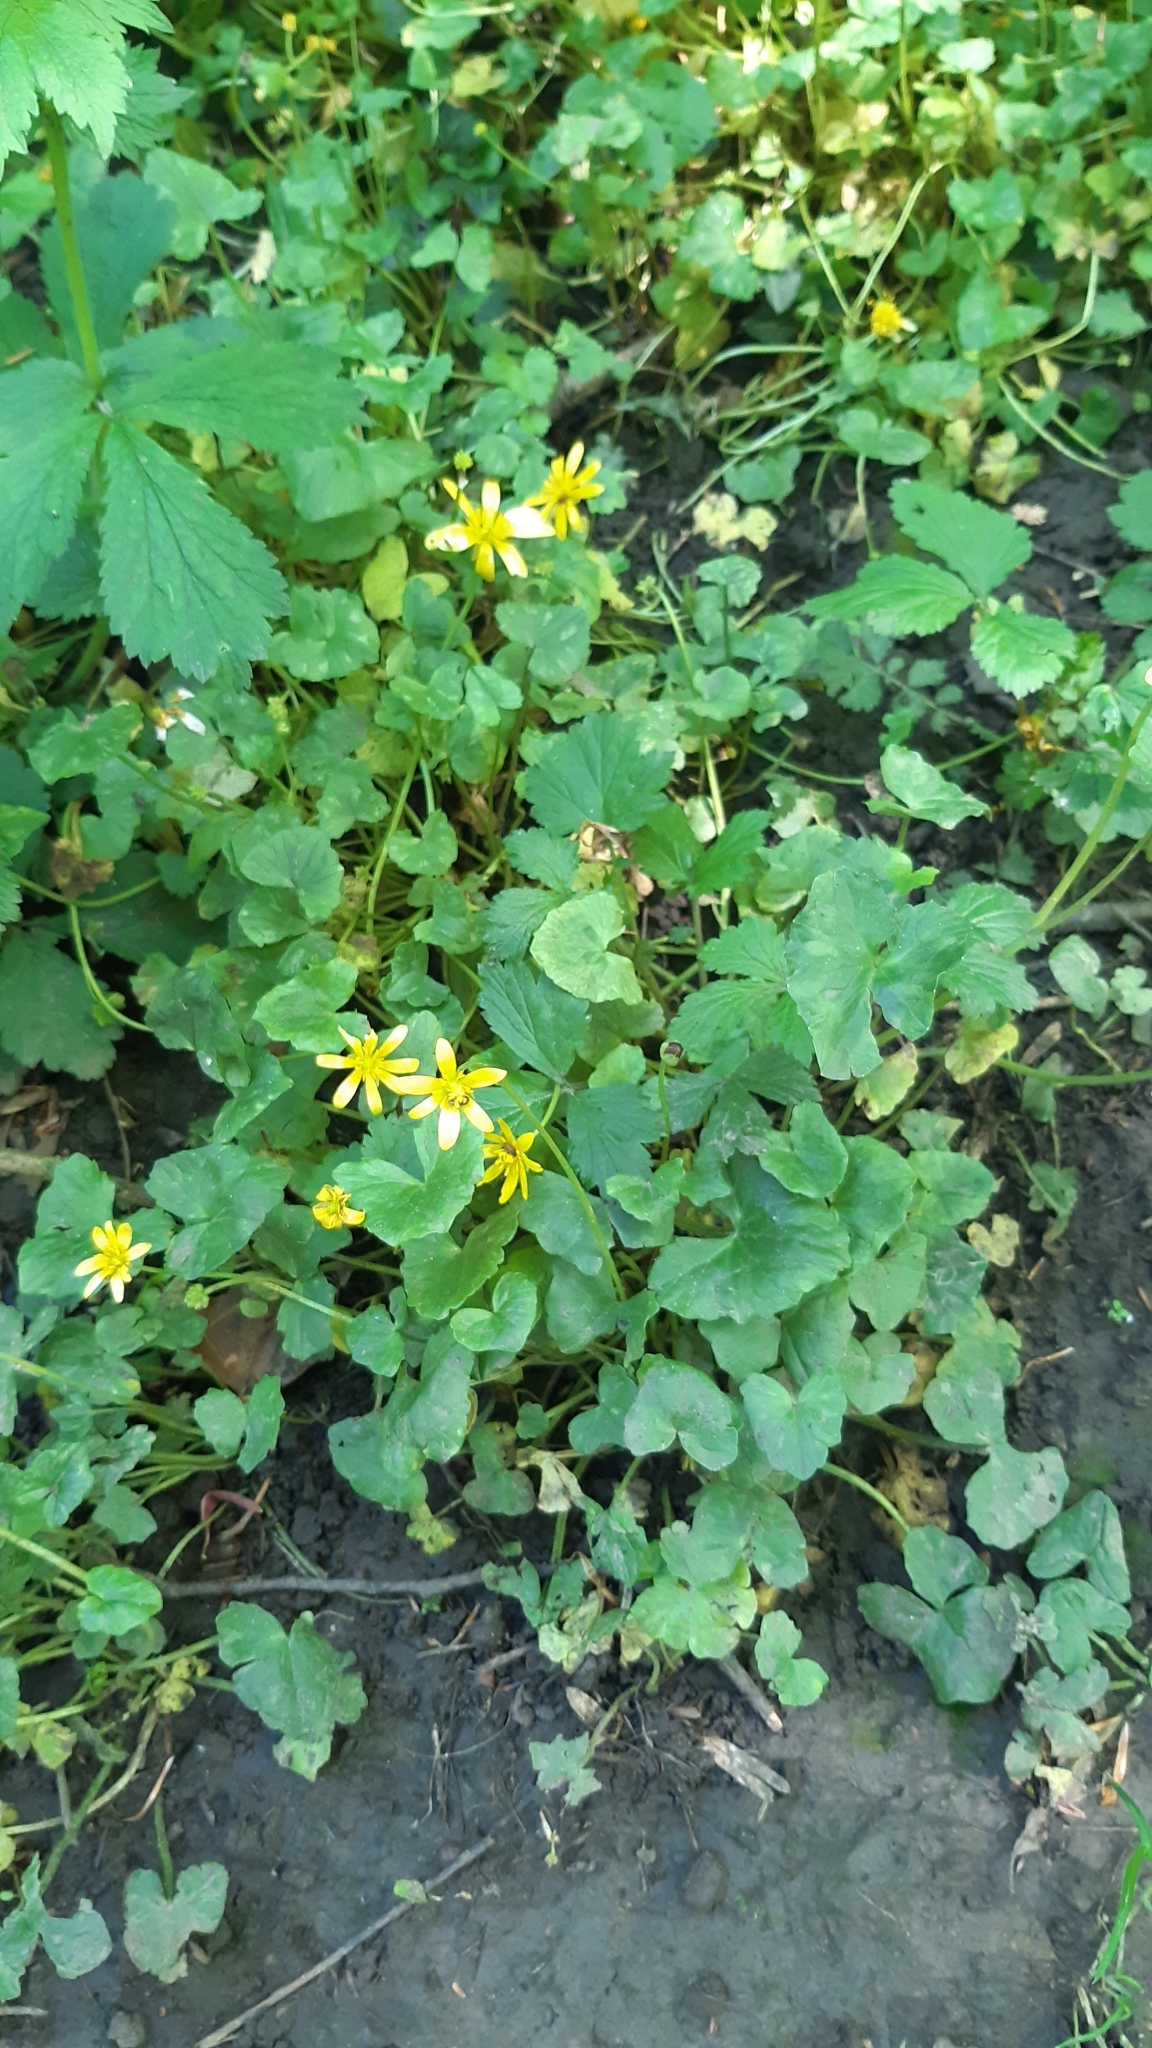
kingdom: Plantae
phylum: Tracheophyta
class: Magnoliopsida
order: Ranunculales
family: Ranunculaceae
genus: Ficaria
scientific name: Ficaria verna
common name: Lesser celandine
